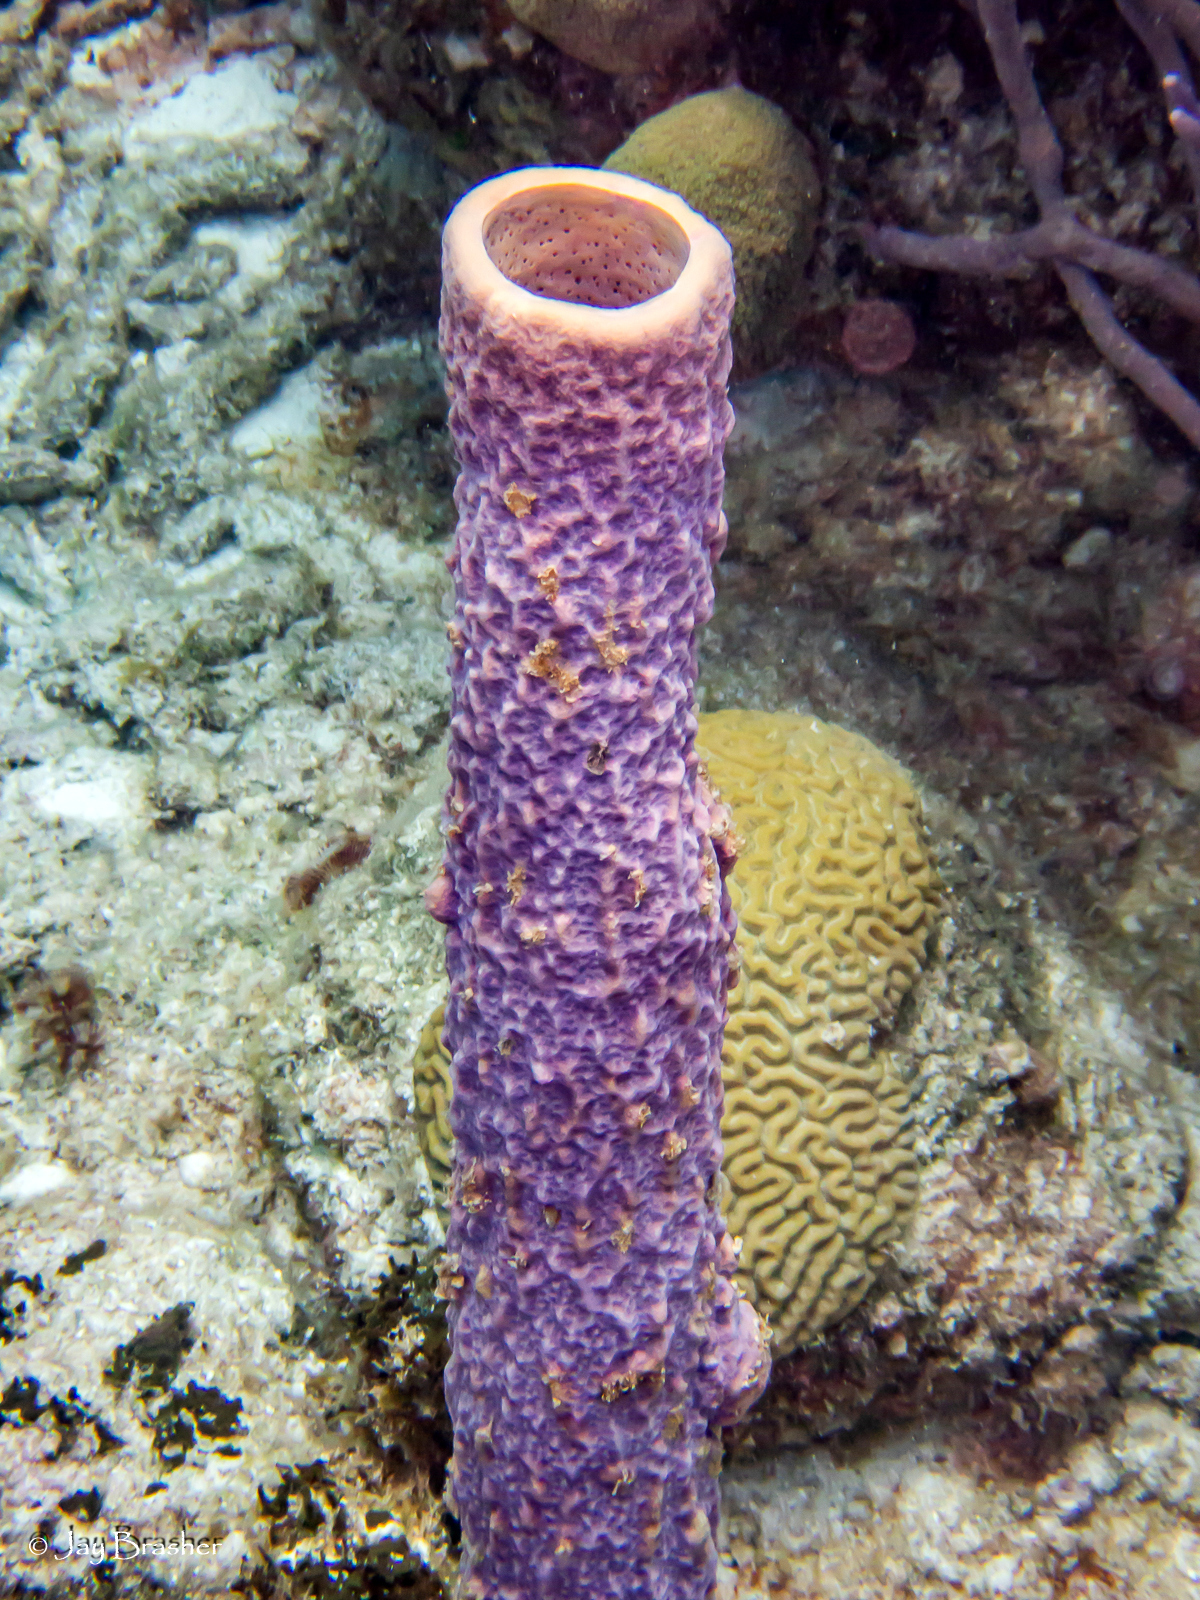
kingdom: Animalia
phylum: Porifera
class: Demospongiae
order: Verongiida
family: Aplysinidae
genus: Aplysina
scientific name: Aplysina archeri
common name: Stove-pipe sponge
